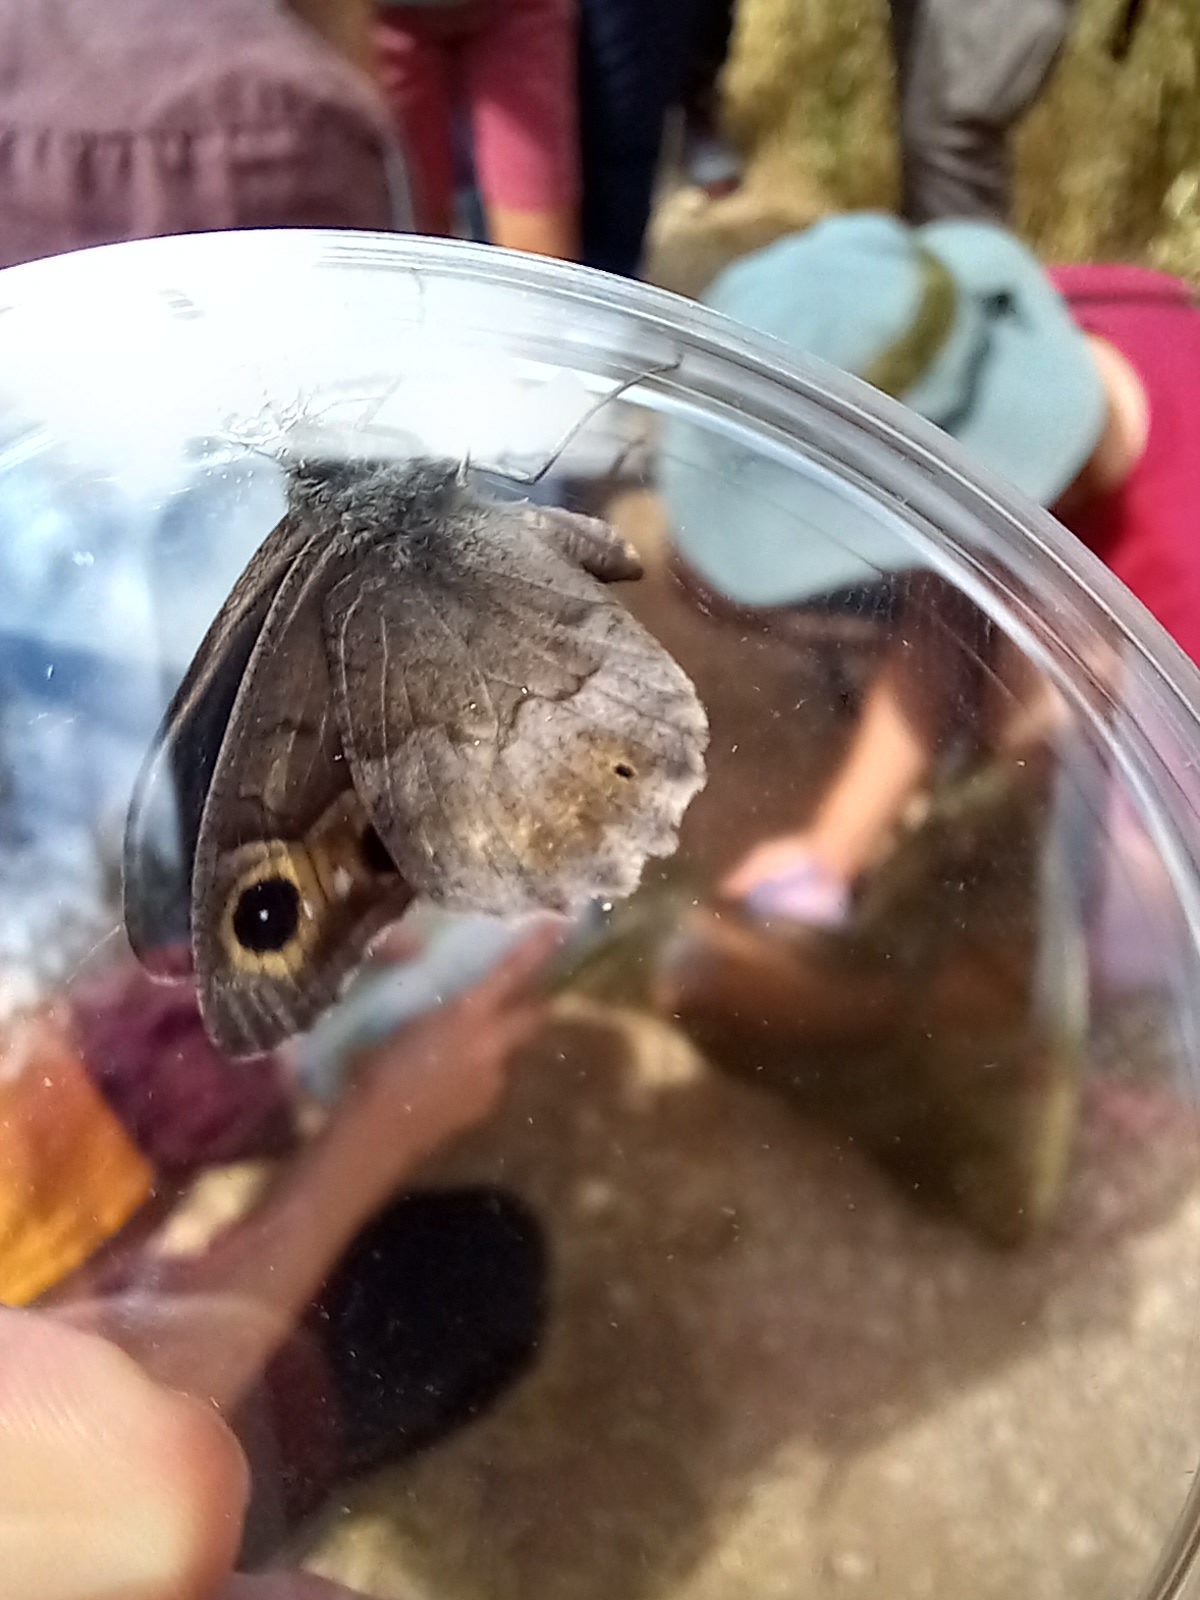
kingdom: Animalia
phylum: Arthropoda
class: Insecta
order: Lepidoptera
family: Nymphalidae
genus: Hipparchia
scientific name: Hipparchia statilinus
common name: Tree grayling
